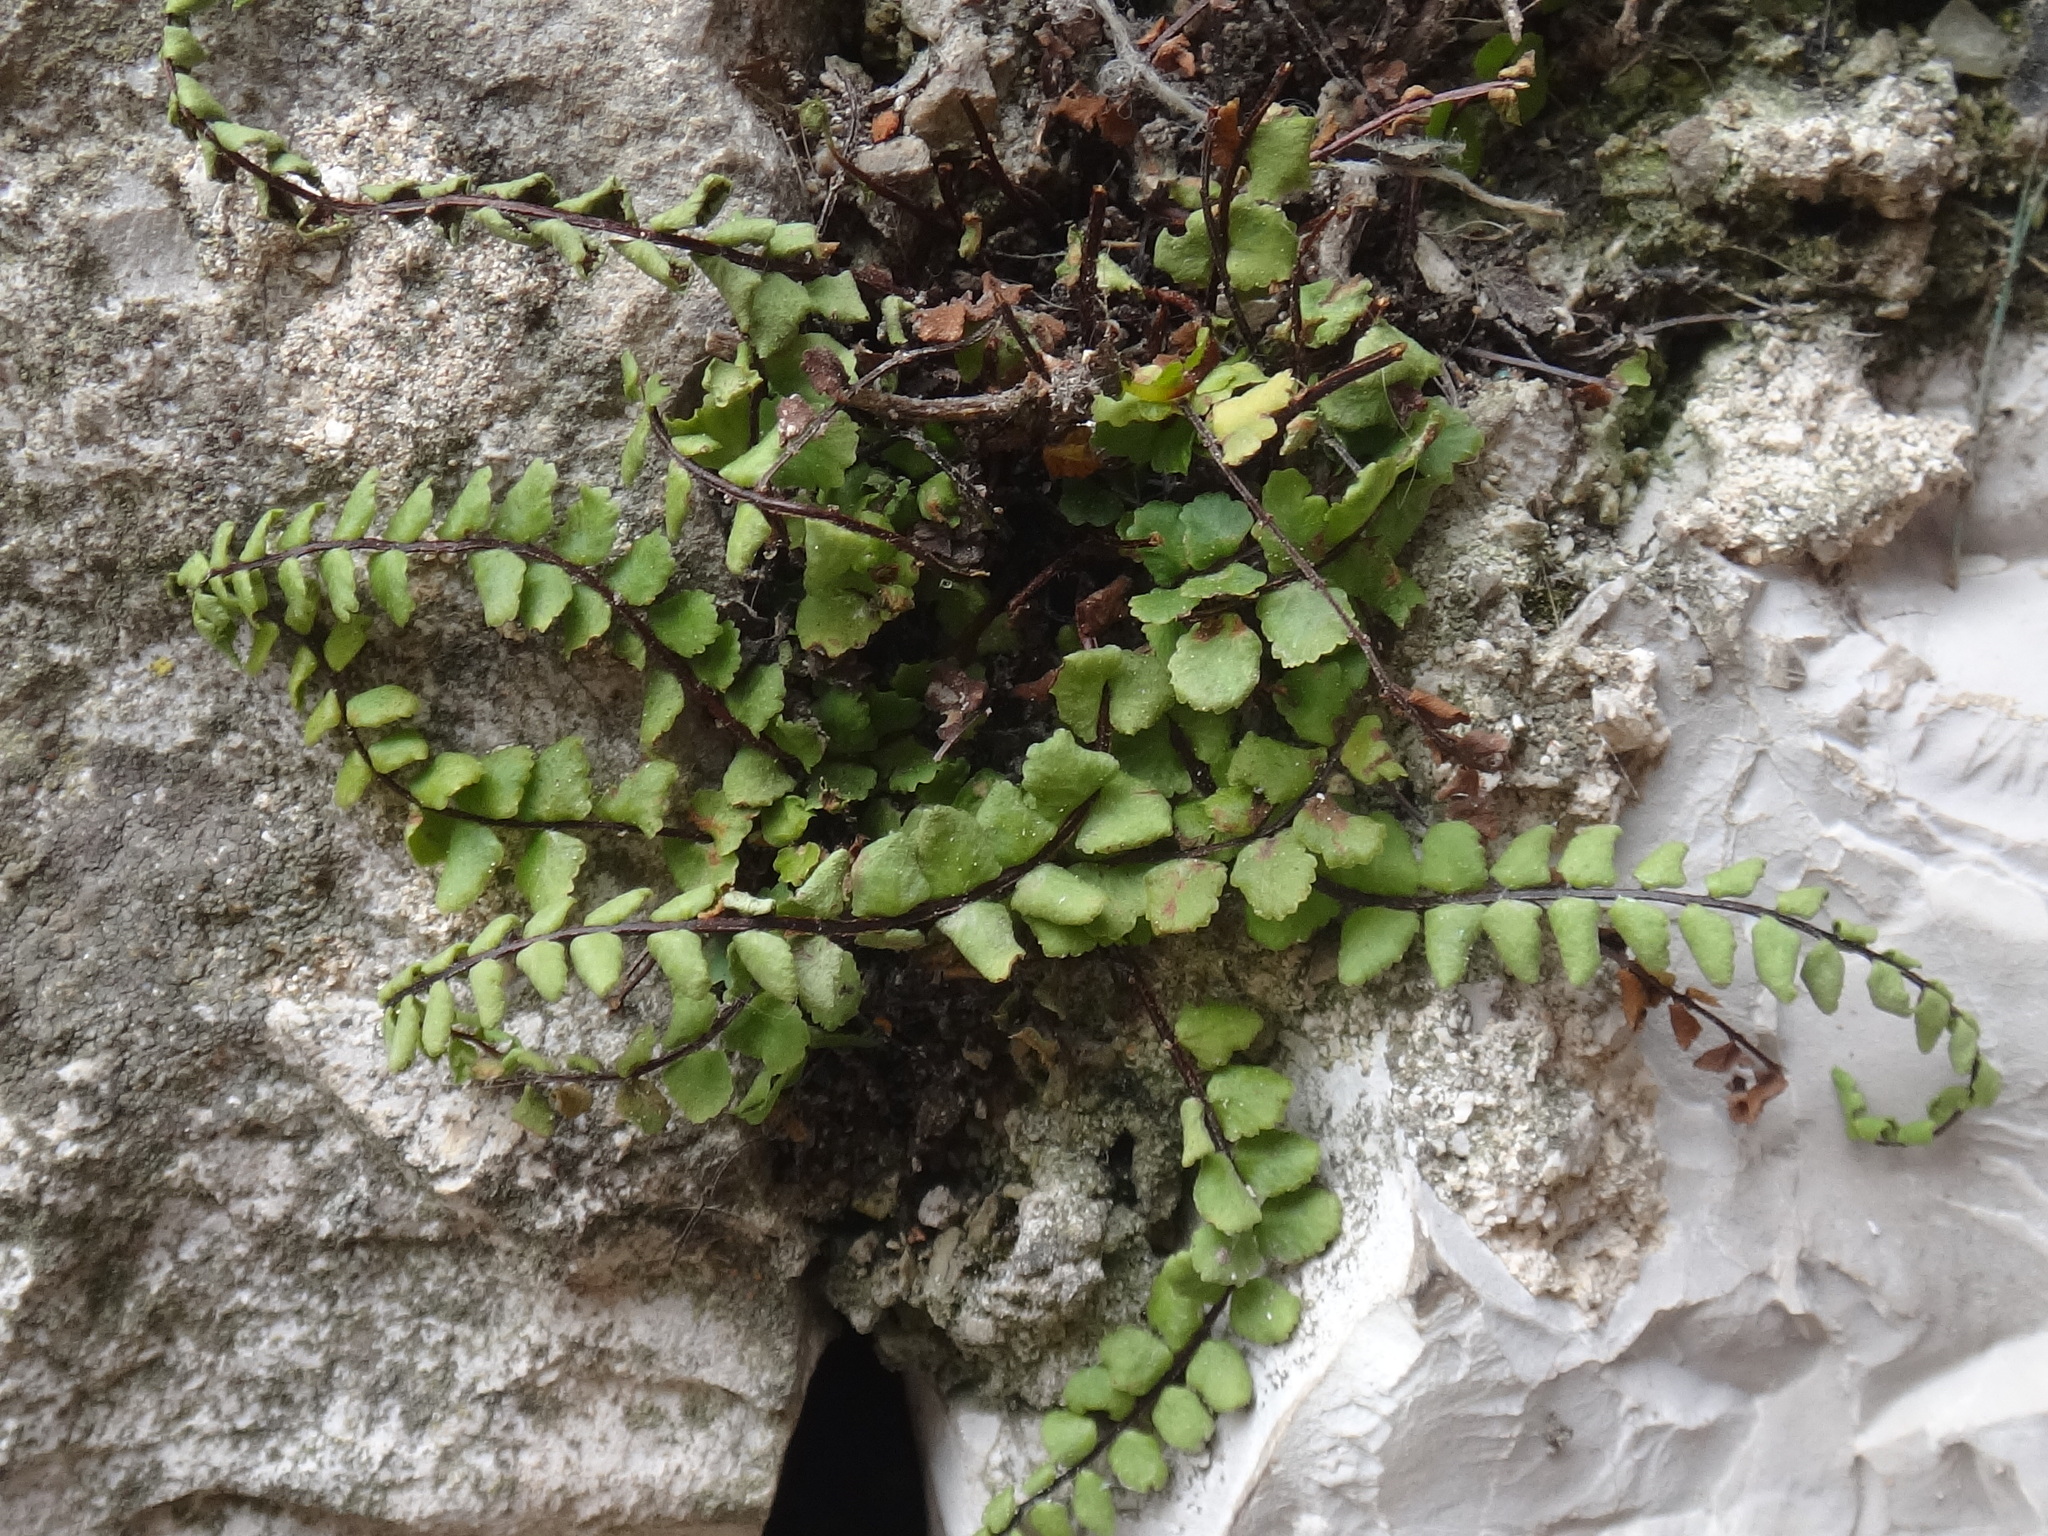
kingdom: Plantae
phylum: Tracheophyta
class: Polypodiopsida
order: Polypodiales
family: Aspleniaceae
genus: Asplenium
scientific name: Asplenium trichomanes
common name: Maidenhair spleenwort
